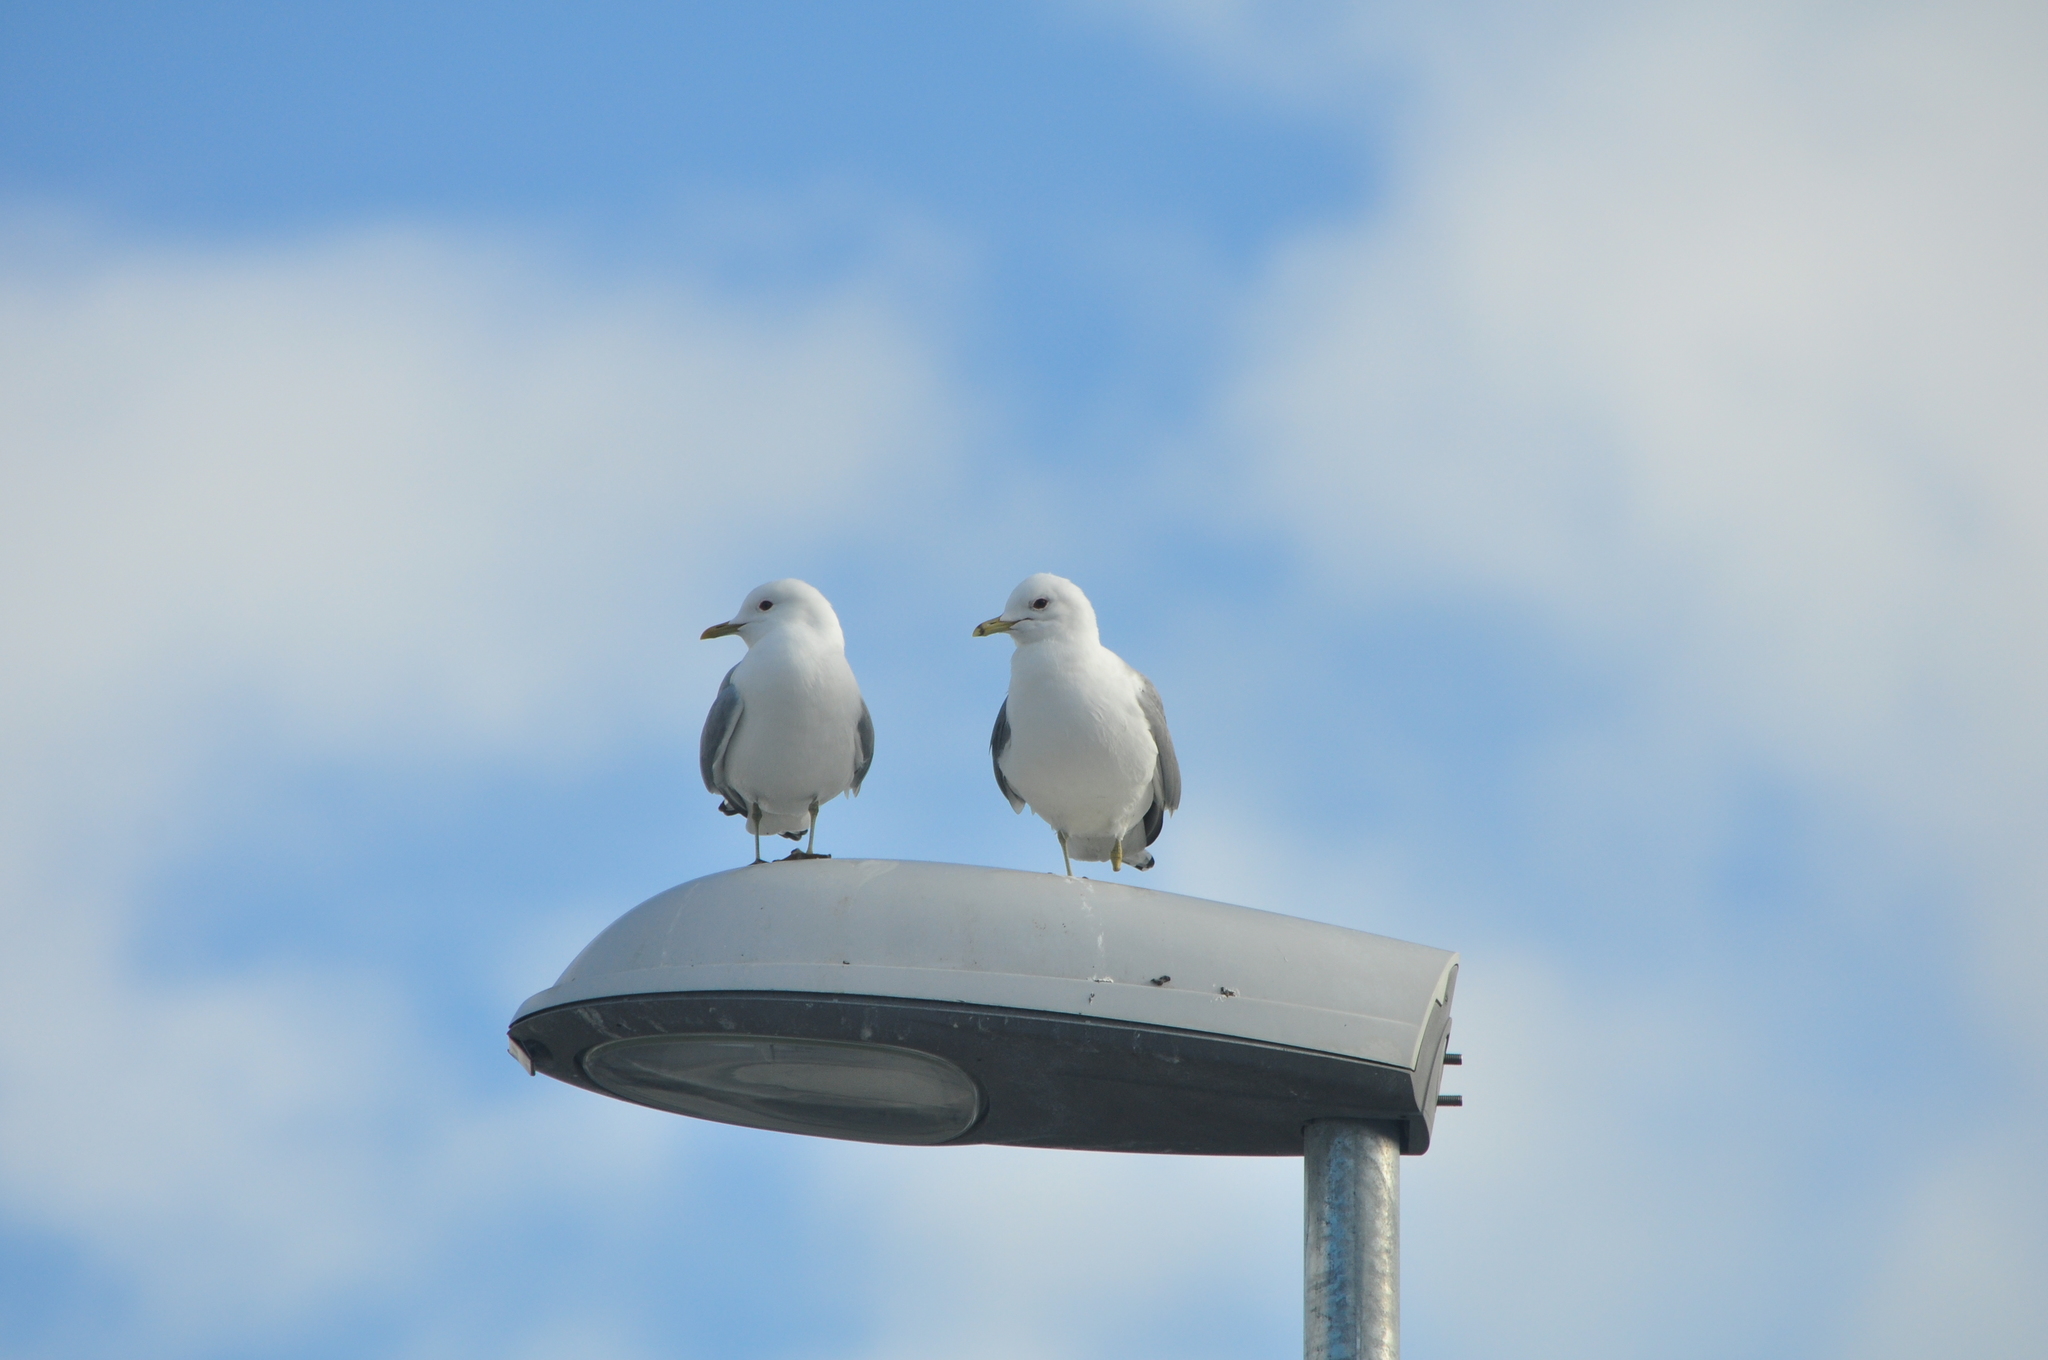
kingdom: Animalia
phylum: Chordata
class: Aves
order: Charadriiformes
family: Laridae
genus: Larus
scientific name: Larus canus
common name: Mew gull
